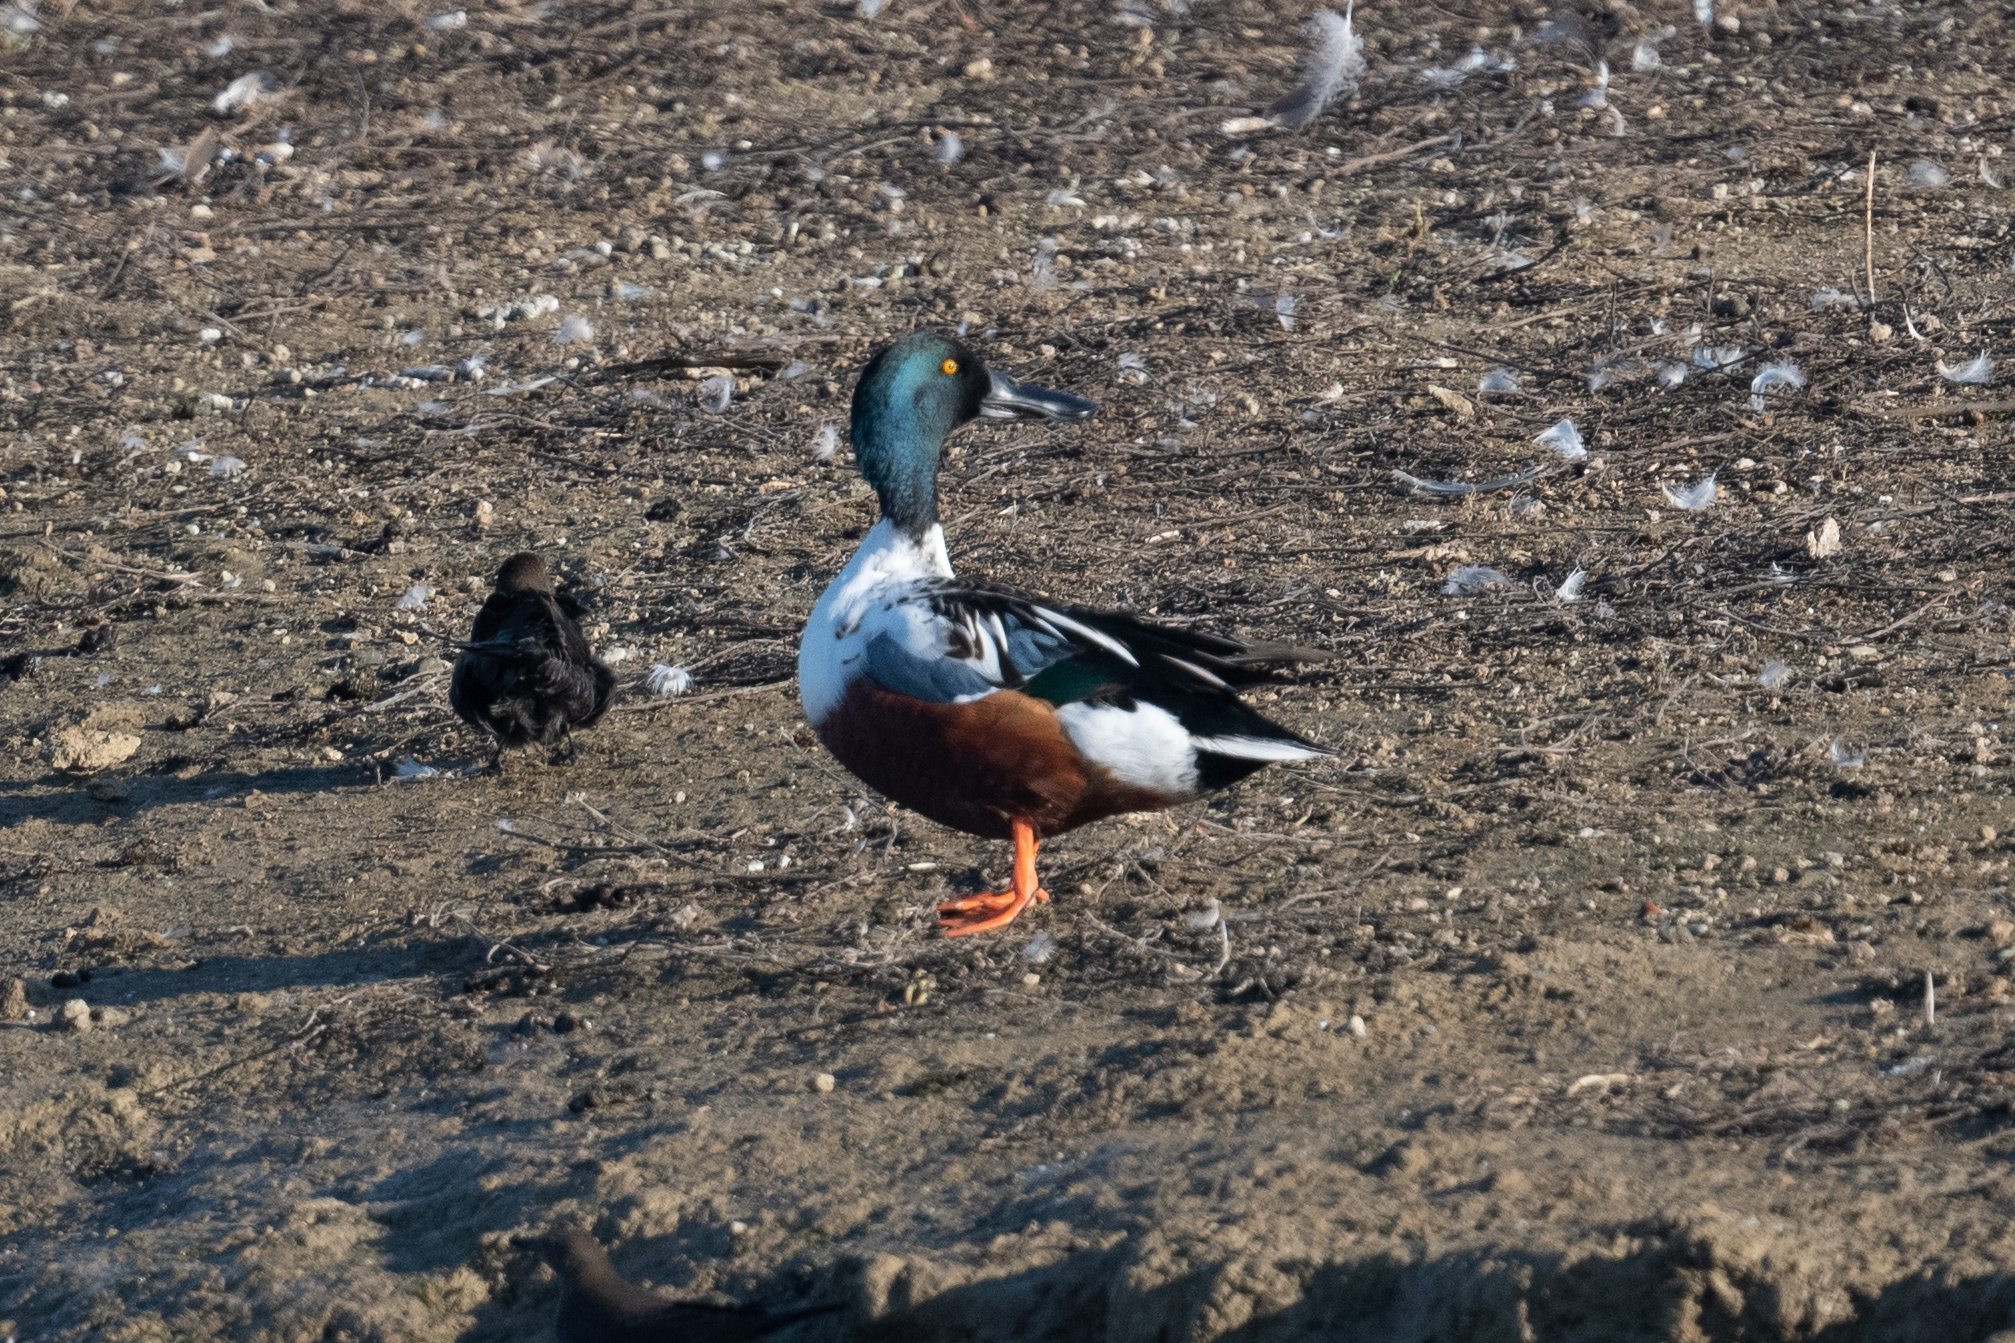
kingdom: Animalia
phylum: Chordata
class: Aves
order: Anseriformes
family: Anatidae
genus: Spatula
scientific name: Spatula clypeata
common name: Northern shoveler
